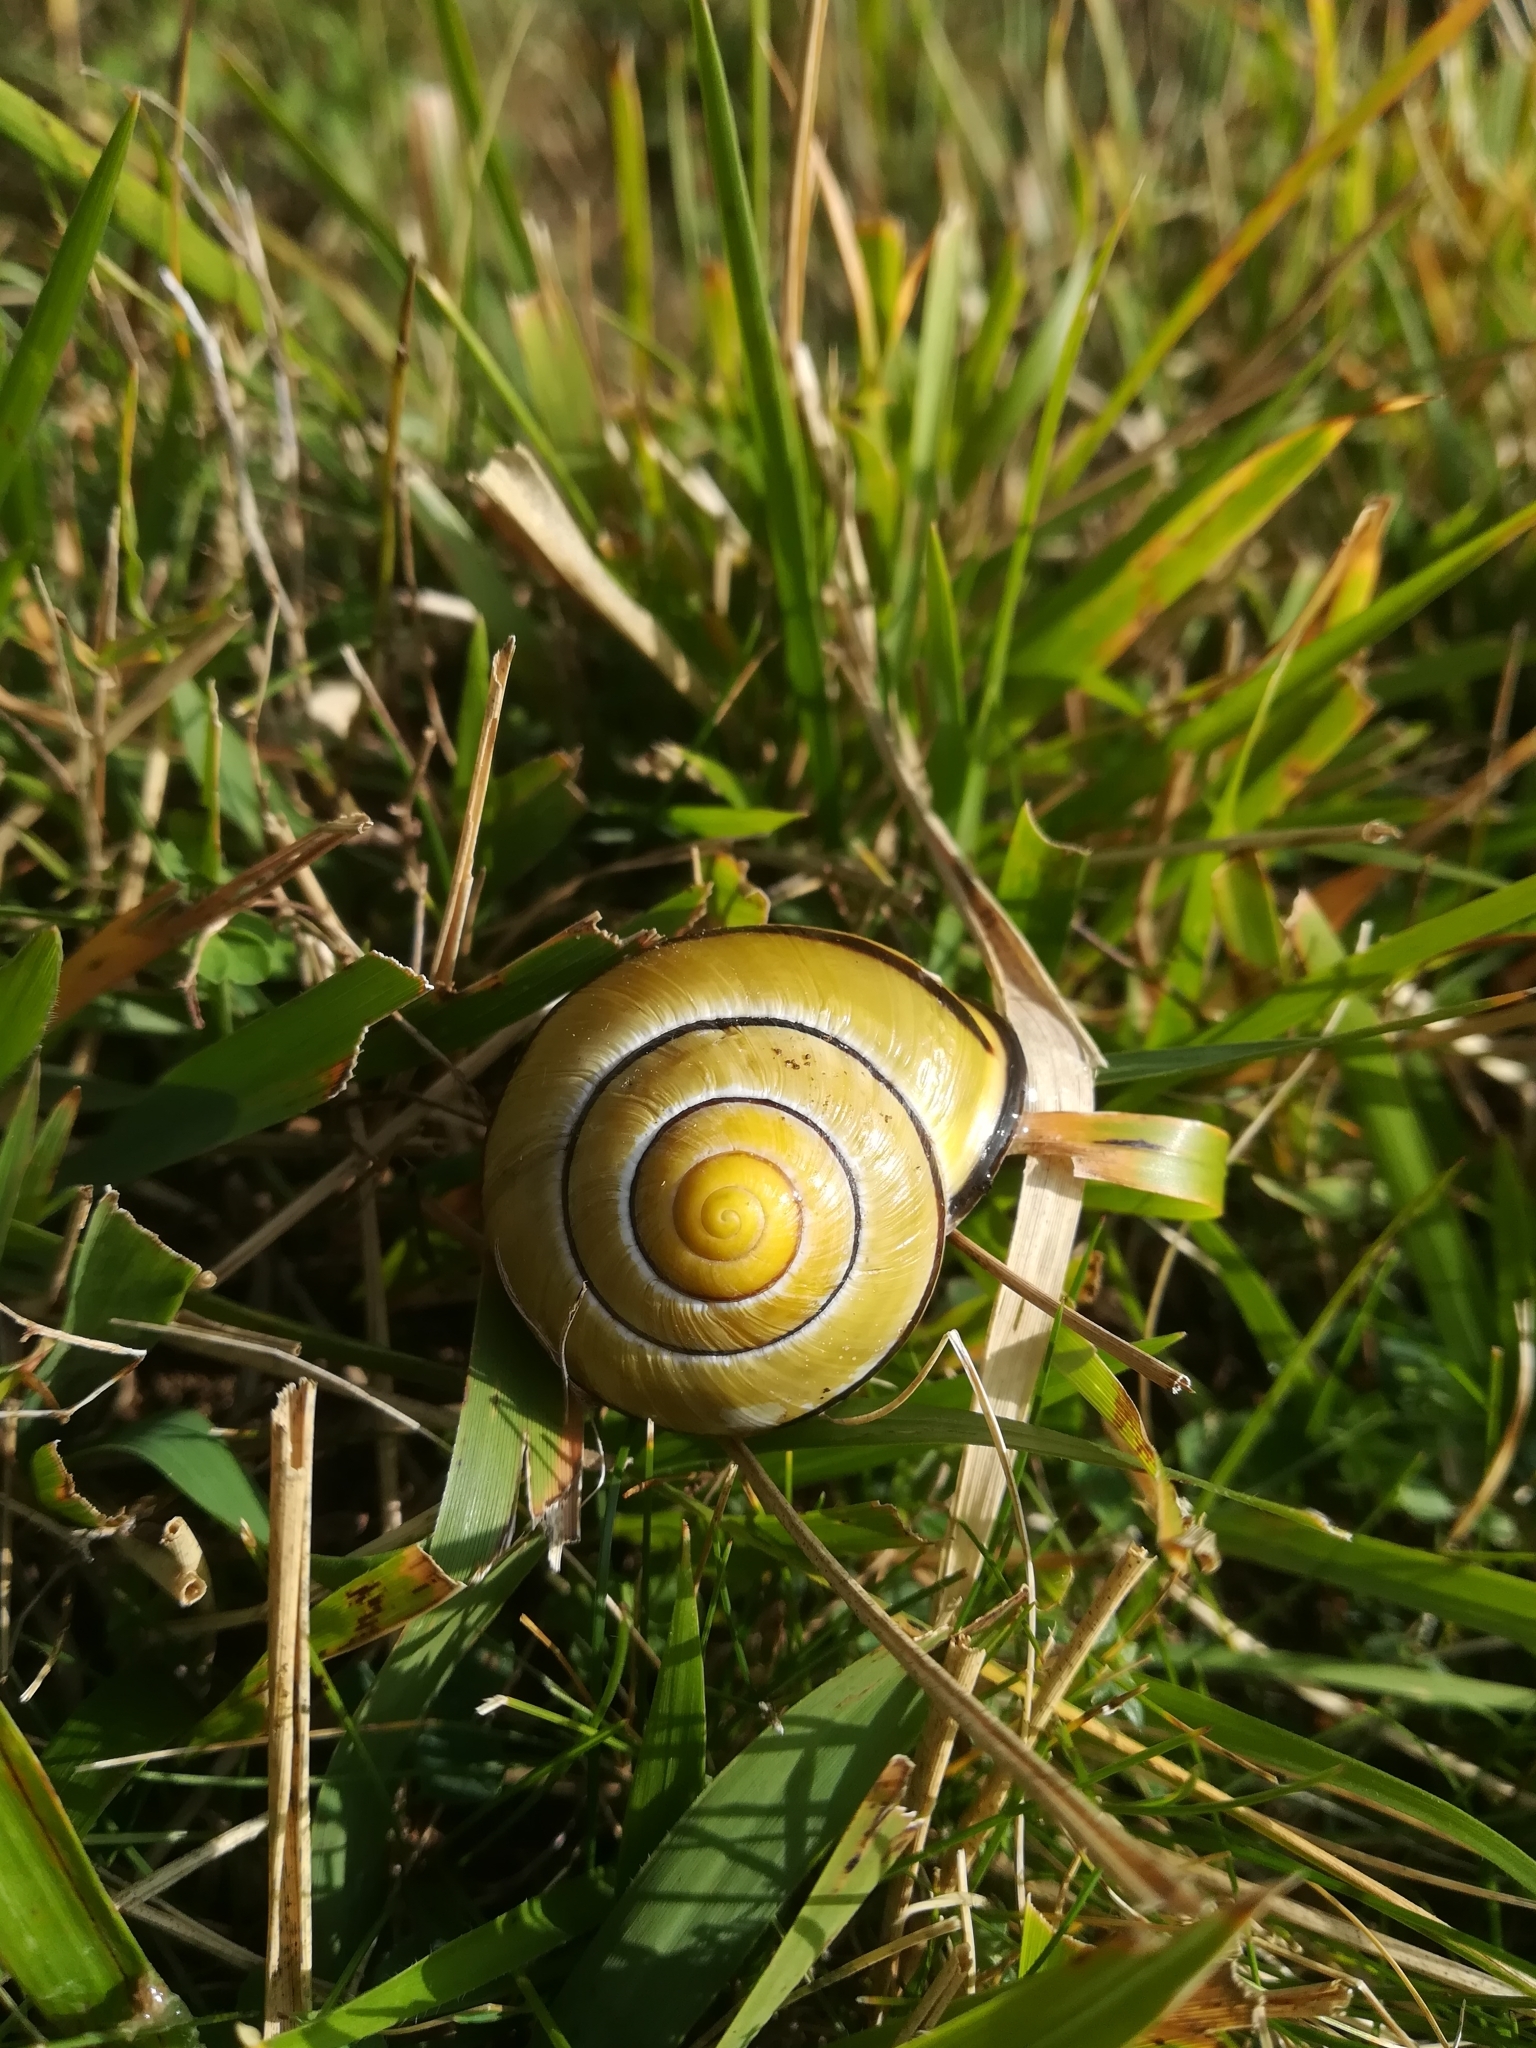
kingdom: Animalia
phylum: Mollusca
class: Gastropoda
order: Stylommatophora
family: Helicidae
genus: Cepaea
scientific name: Cepaea nemoralis
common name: Grovesnail
